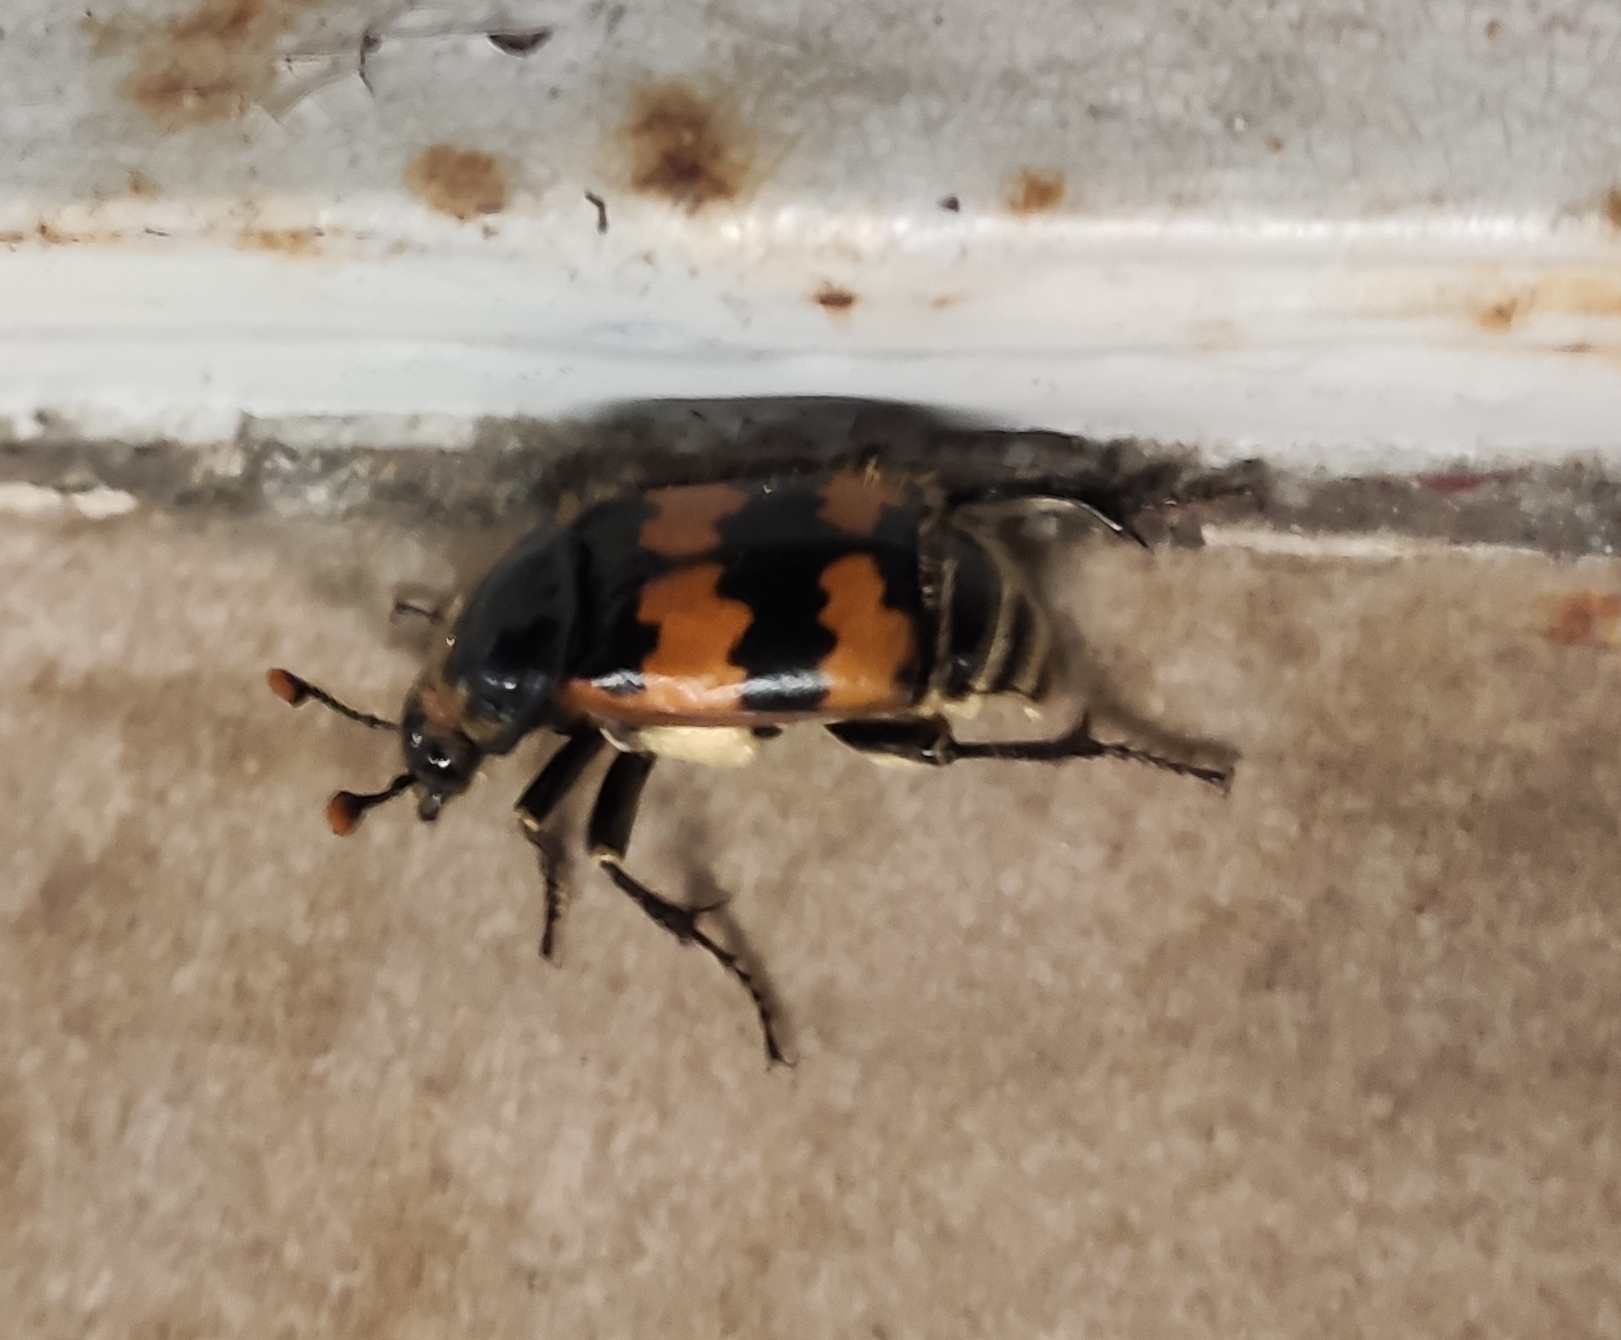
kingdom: Animalia
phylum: Arthropoda
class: Insecta
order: Coleoptera
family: Staphylinidae
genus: Nicrophorus
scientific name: Nicrophorus vespillo
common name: Common burying beetle
